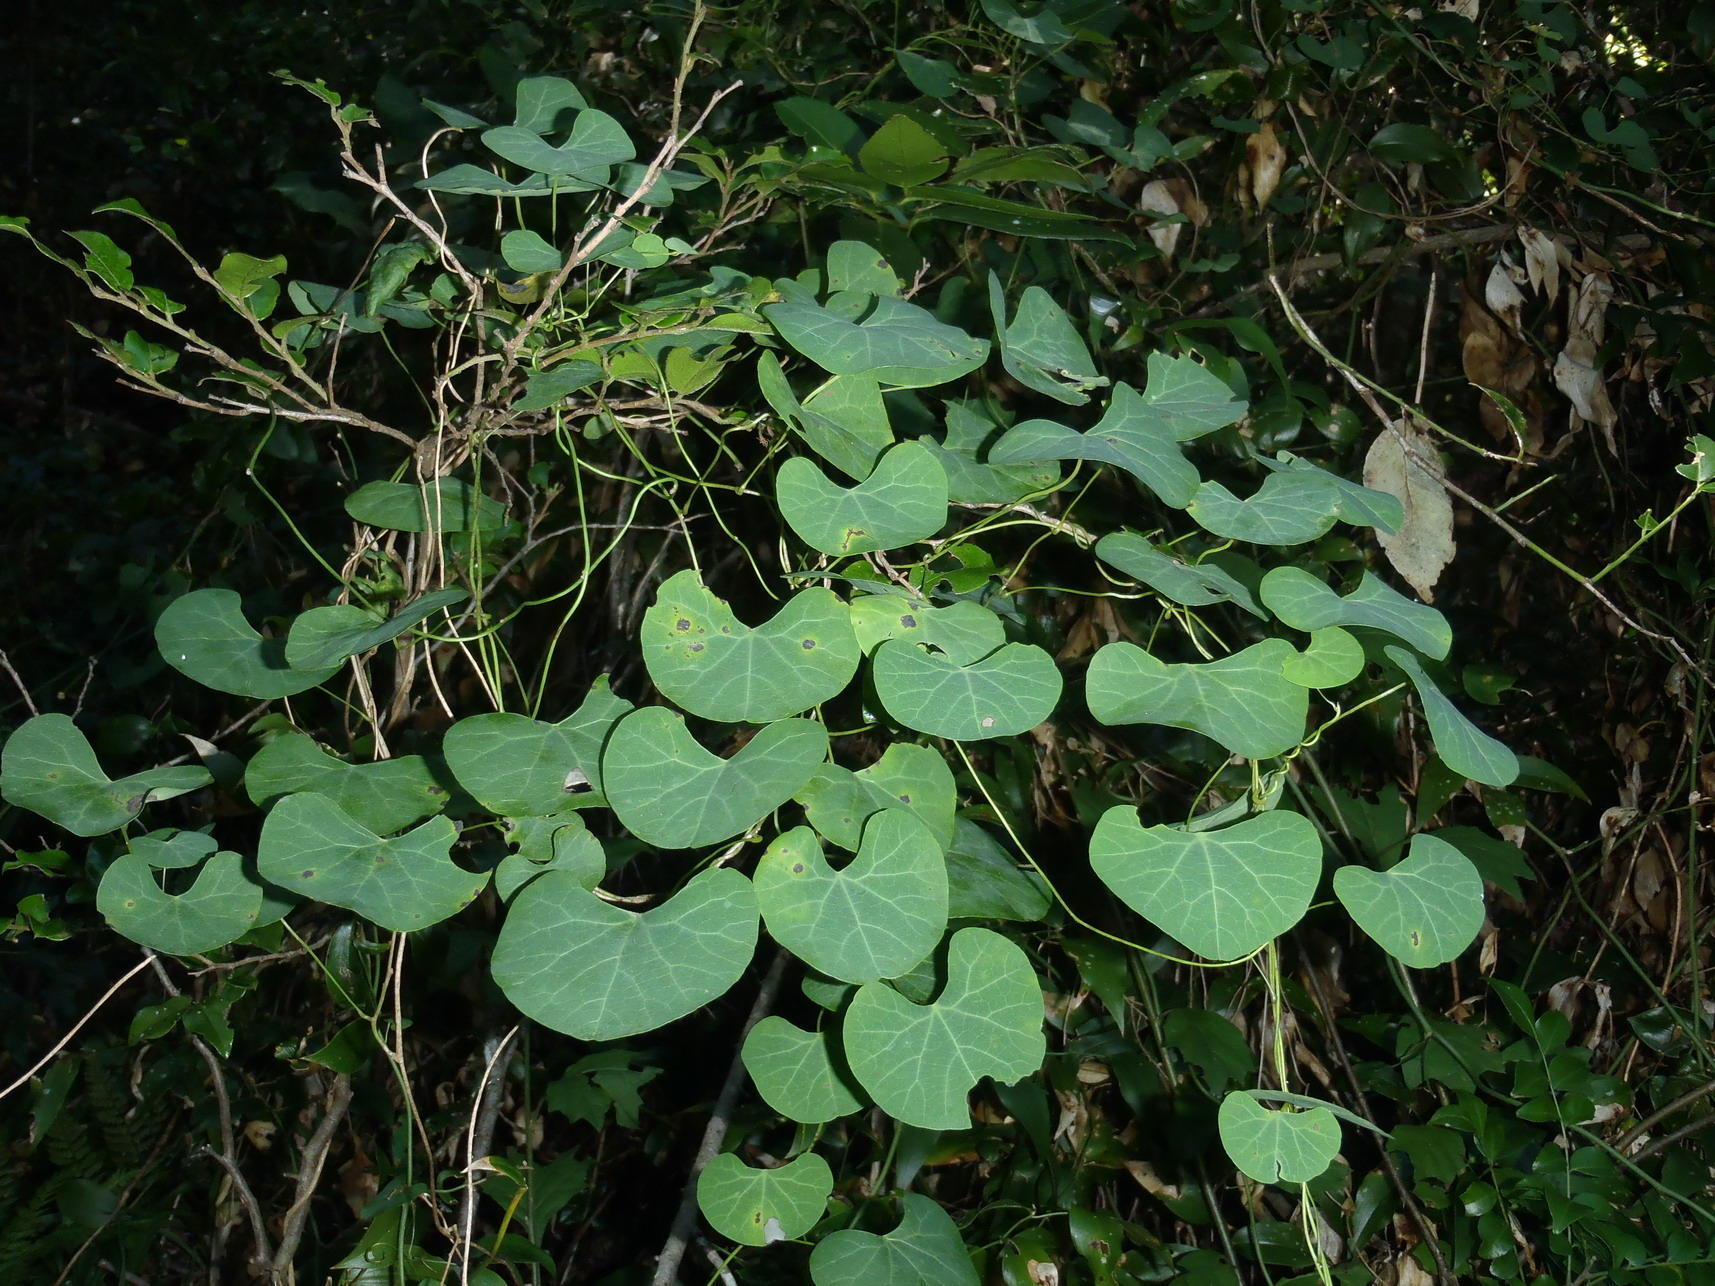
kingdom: Plantae
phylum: Tracheophyta
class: Magnoliopsida
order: Ranunculales
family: Menispermaceae
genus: Cissampelos
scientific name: Cissampelos torulosa
